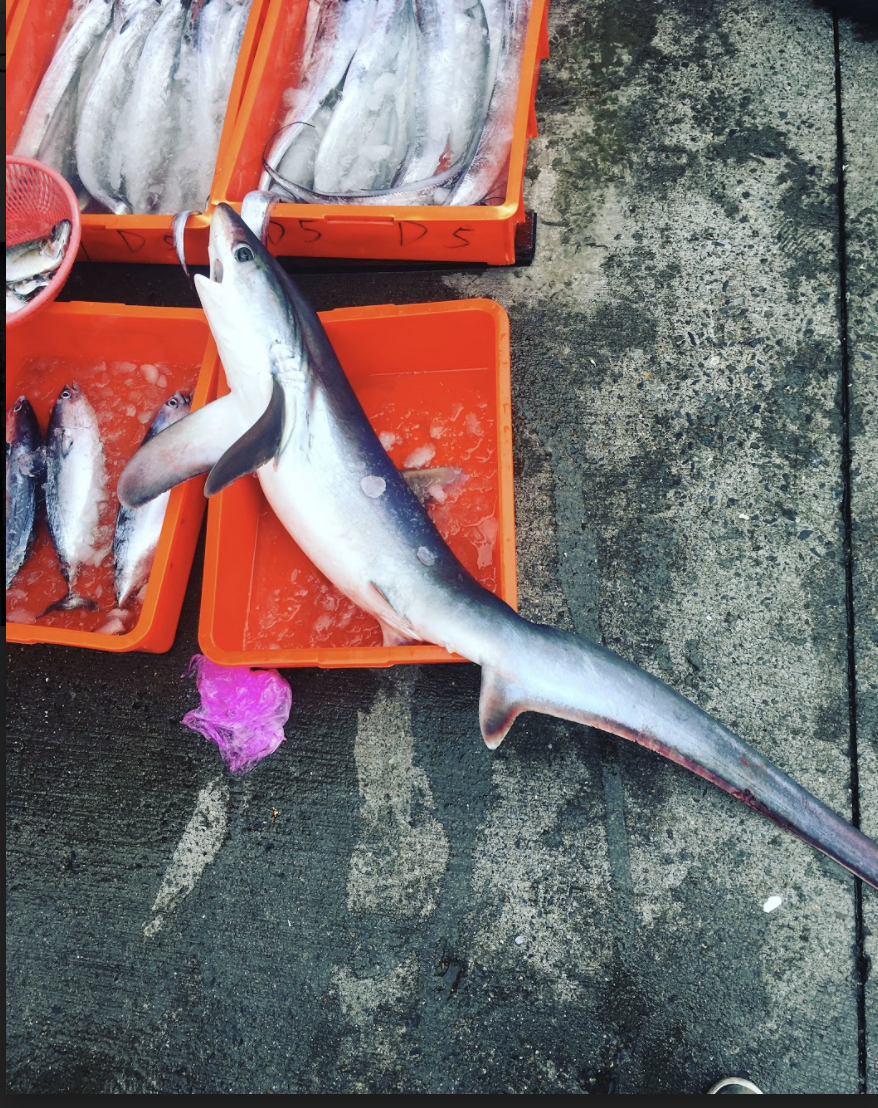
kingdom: Animalia
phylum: Chordata
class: Elasmobranchii
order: Lamniformes
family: Alopiidae
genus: Alopias
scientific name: Alopias pelagicus
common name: Pelagic thresher
